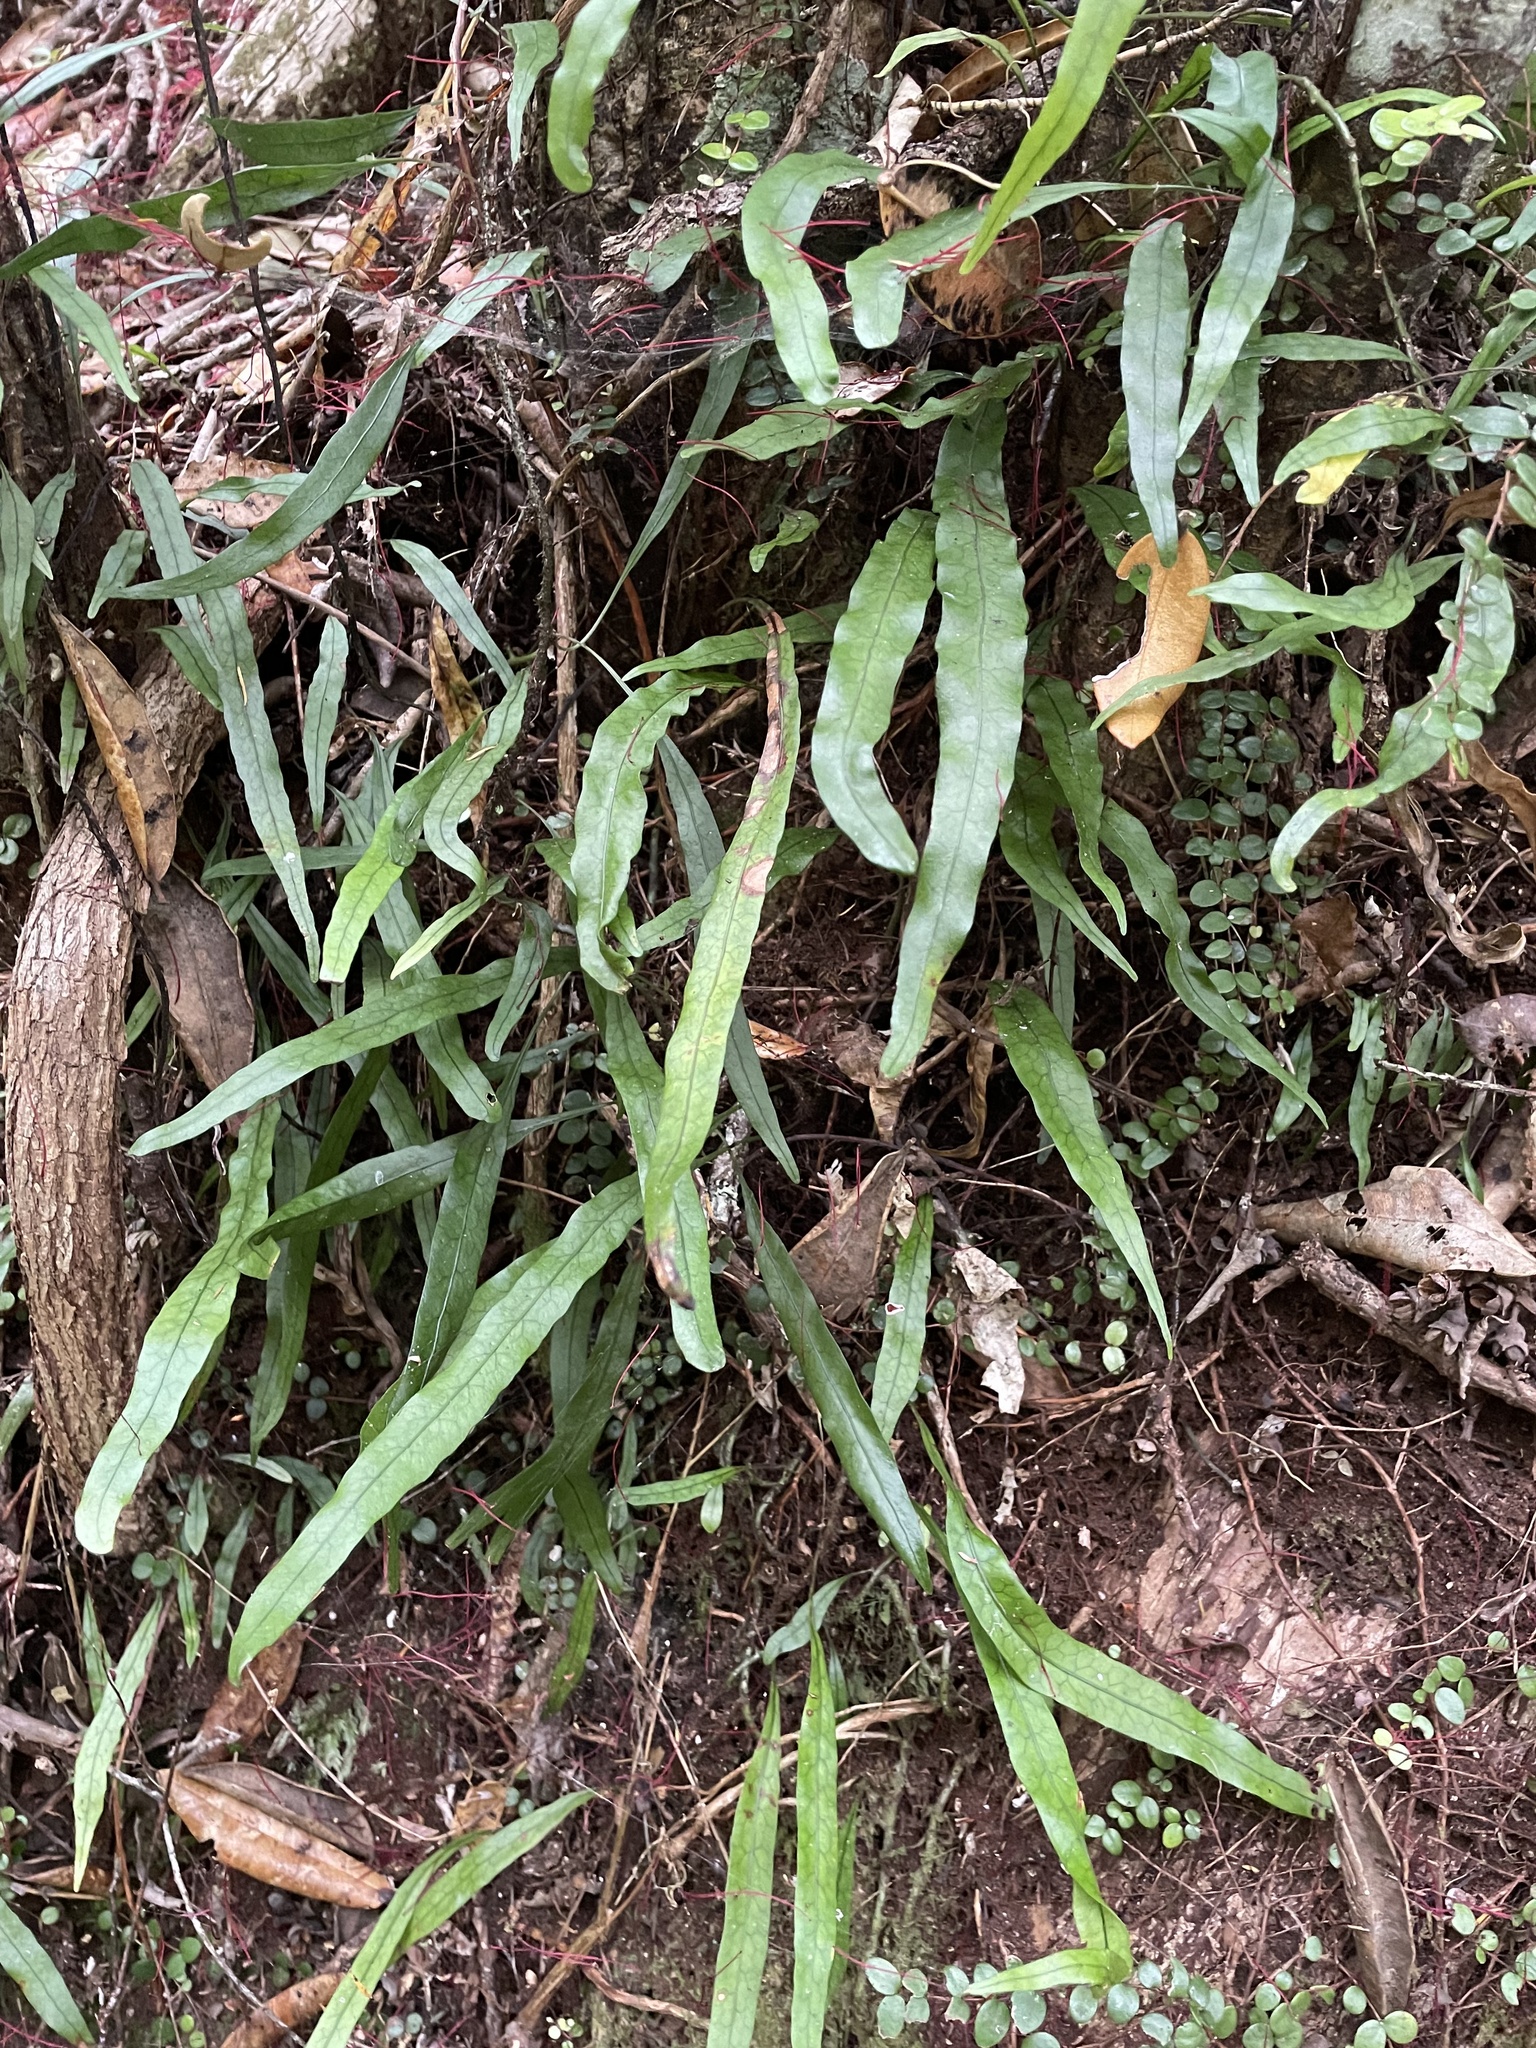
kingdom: Plantae
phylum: Tracheophyta
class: Polypodiopsida
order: Polypodiales
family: Polypodiaceae
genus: Lecanopteris
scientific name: Lecanopteris scandens
